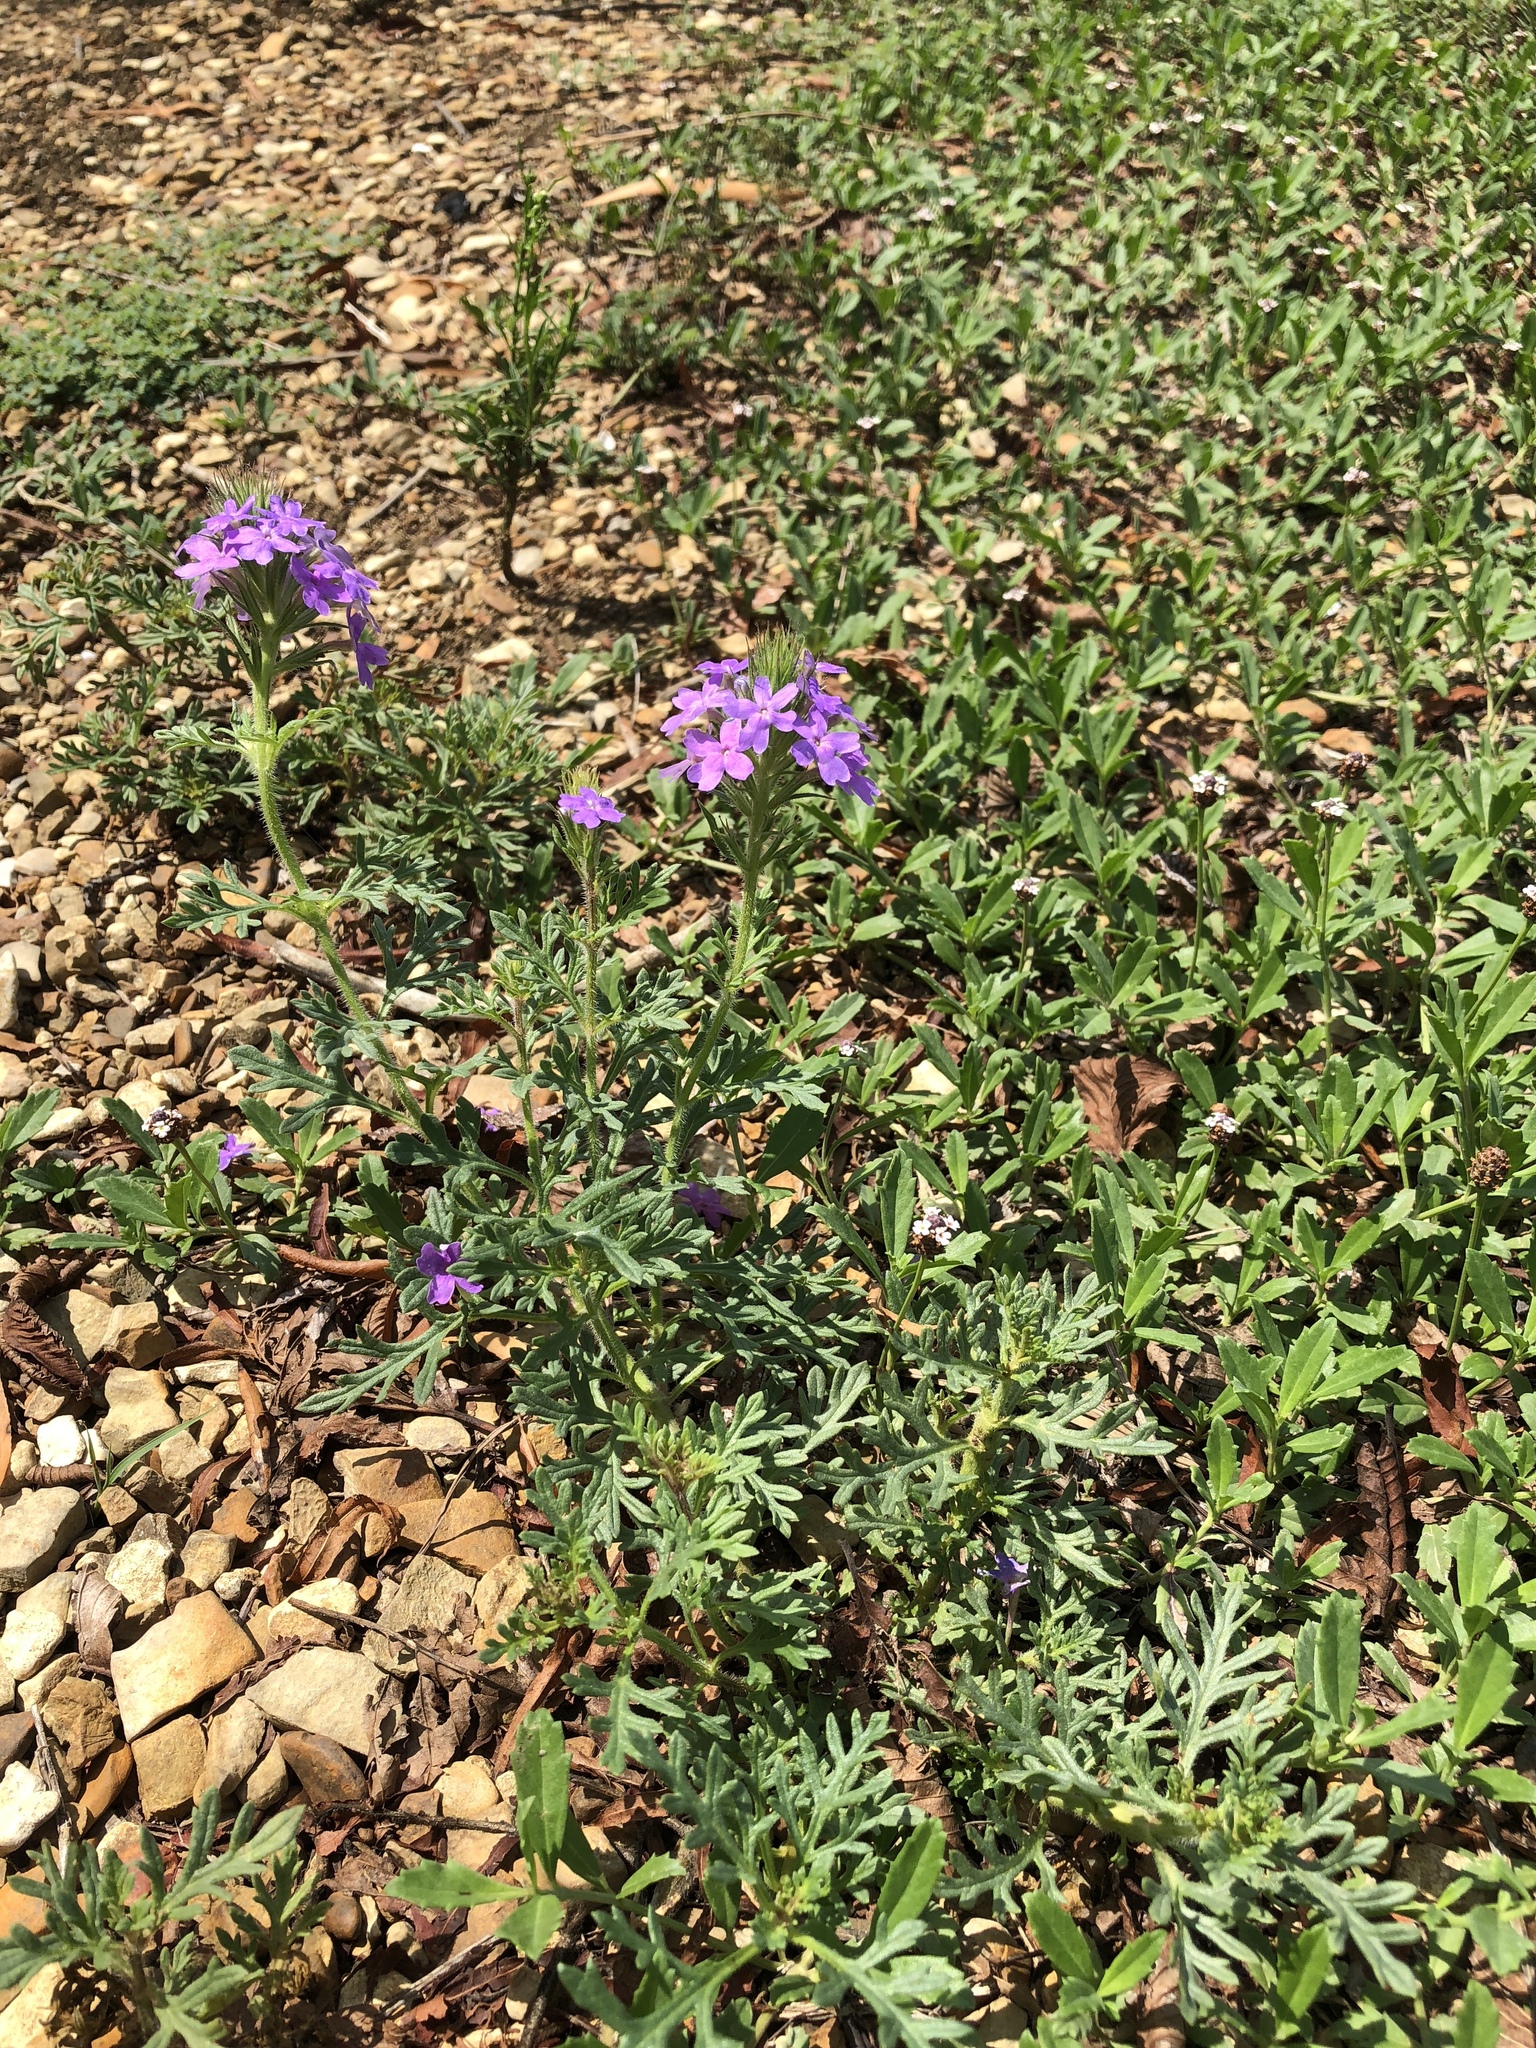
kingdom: Plantae
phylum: Tracheophyta
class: Magnoliopsida
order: Lamiales
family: Verbenaceae
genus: Verbena
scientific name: Verbena bipinnatifida
